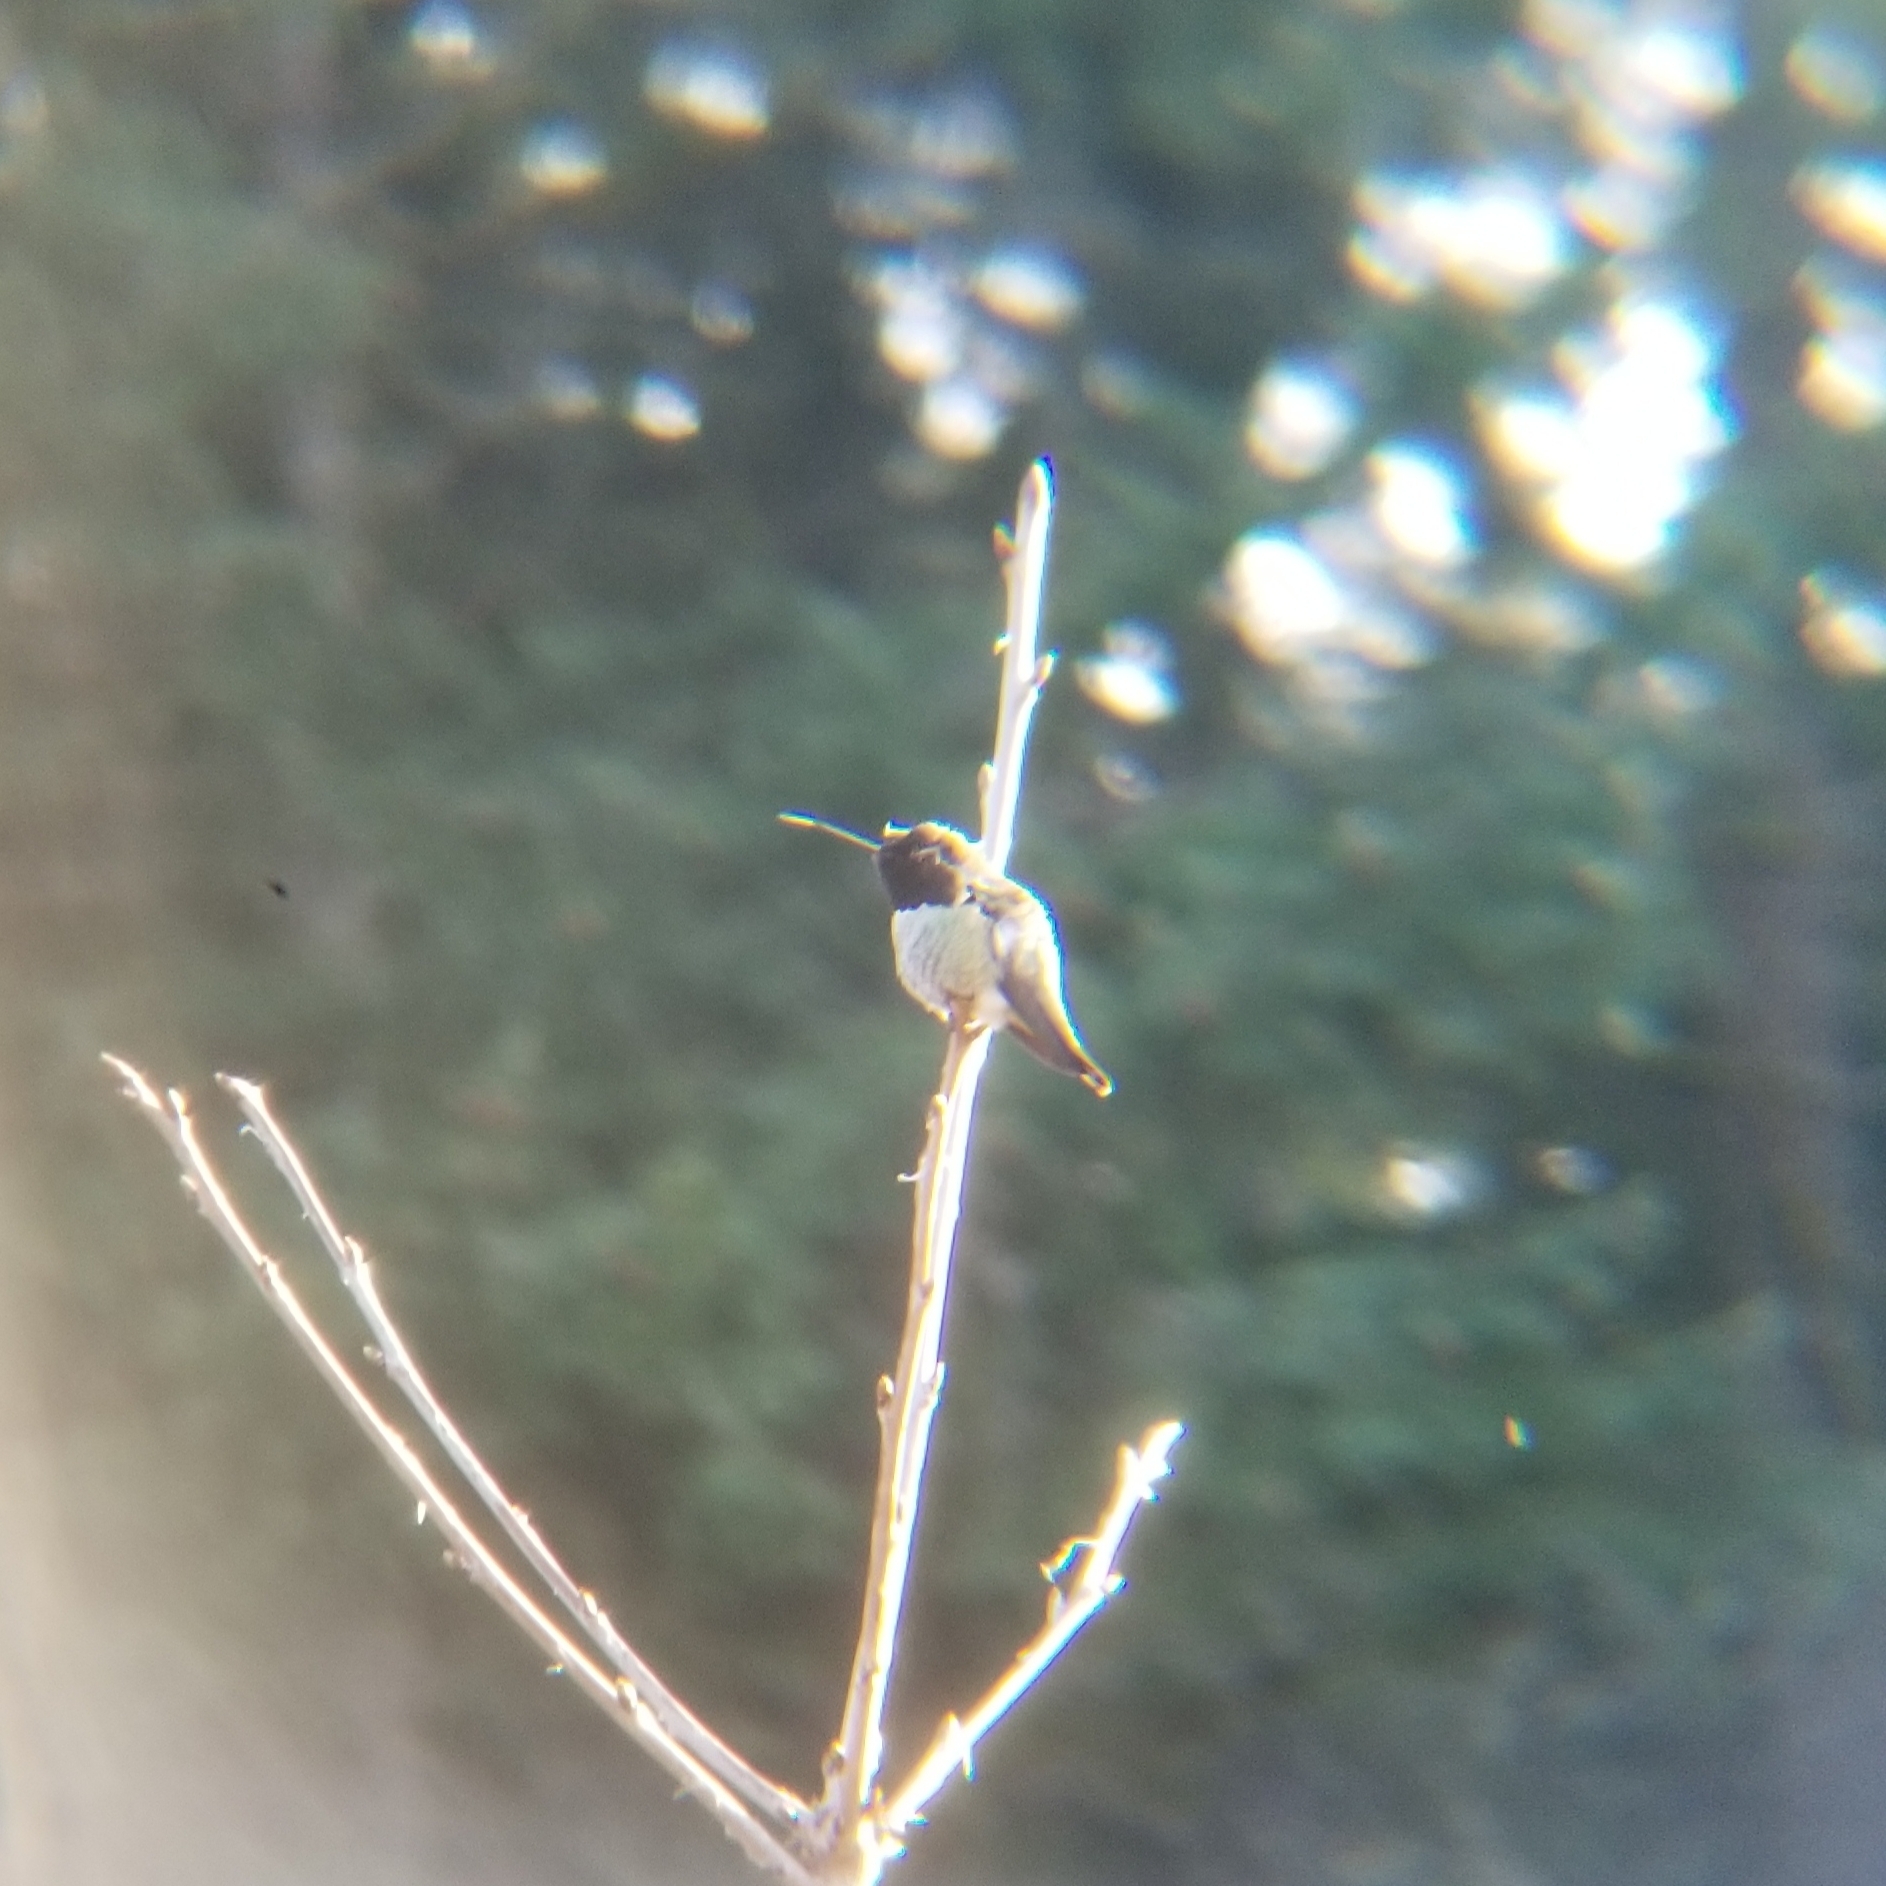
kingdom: Animalia
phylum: Chordata
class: Aves
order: Apodiformes
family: Trochilidae
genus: Calypte
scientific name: Calypte anna
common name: Anna's hummingbird
